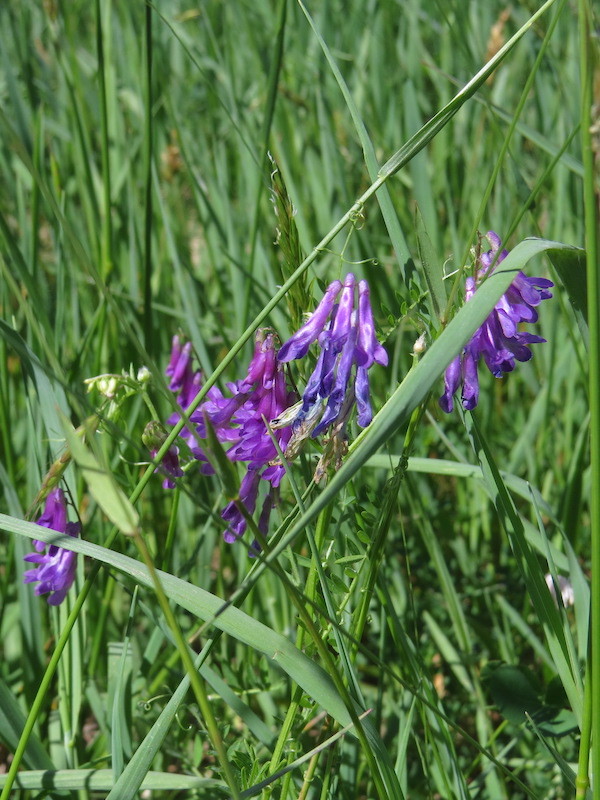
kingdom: Plantae
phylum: Tracheophyta
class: Magnoliopsida
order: Fabales
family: Fabaceae
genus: Vicia
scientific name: Vicia villosa
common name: Fodder vetch
